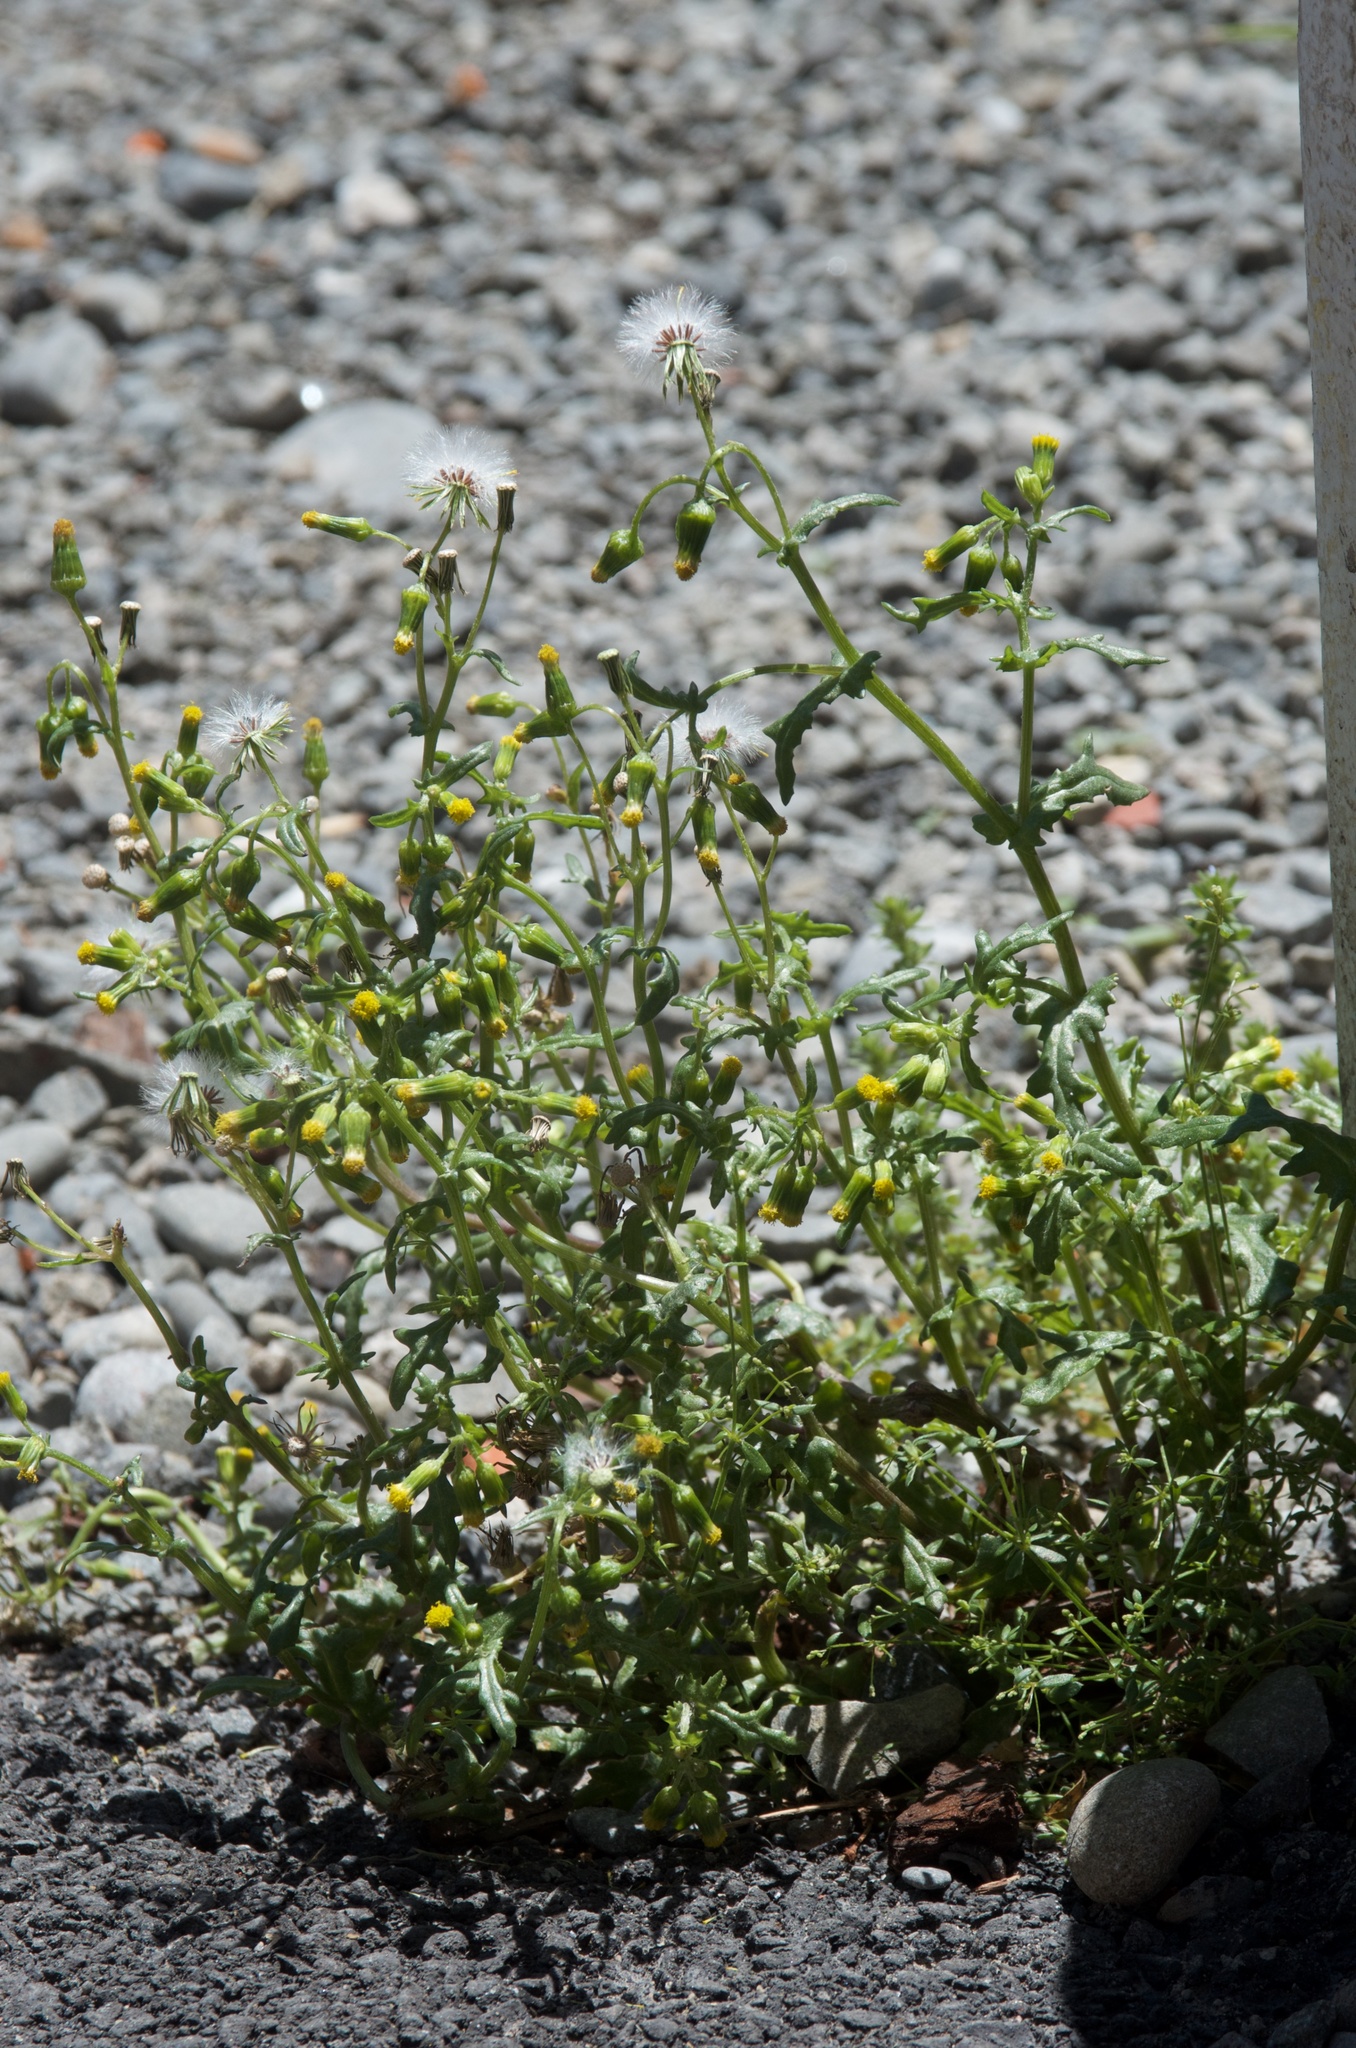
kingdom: Plantae
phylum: Tracheophyta
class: Magnoliopsida
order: Asterales
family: Asteraceae
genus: Senecio
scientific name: Senecio vulgaris
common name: Old-man-in-the-spring
